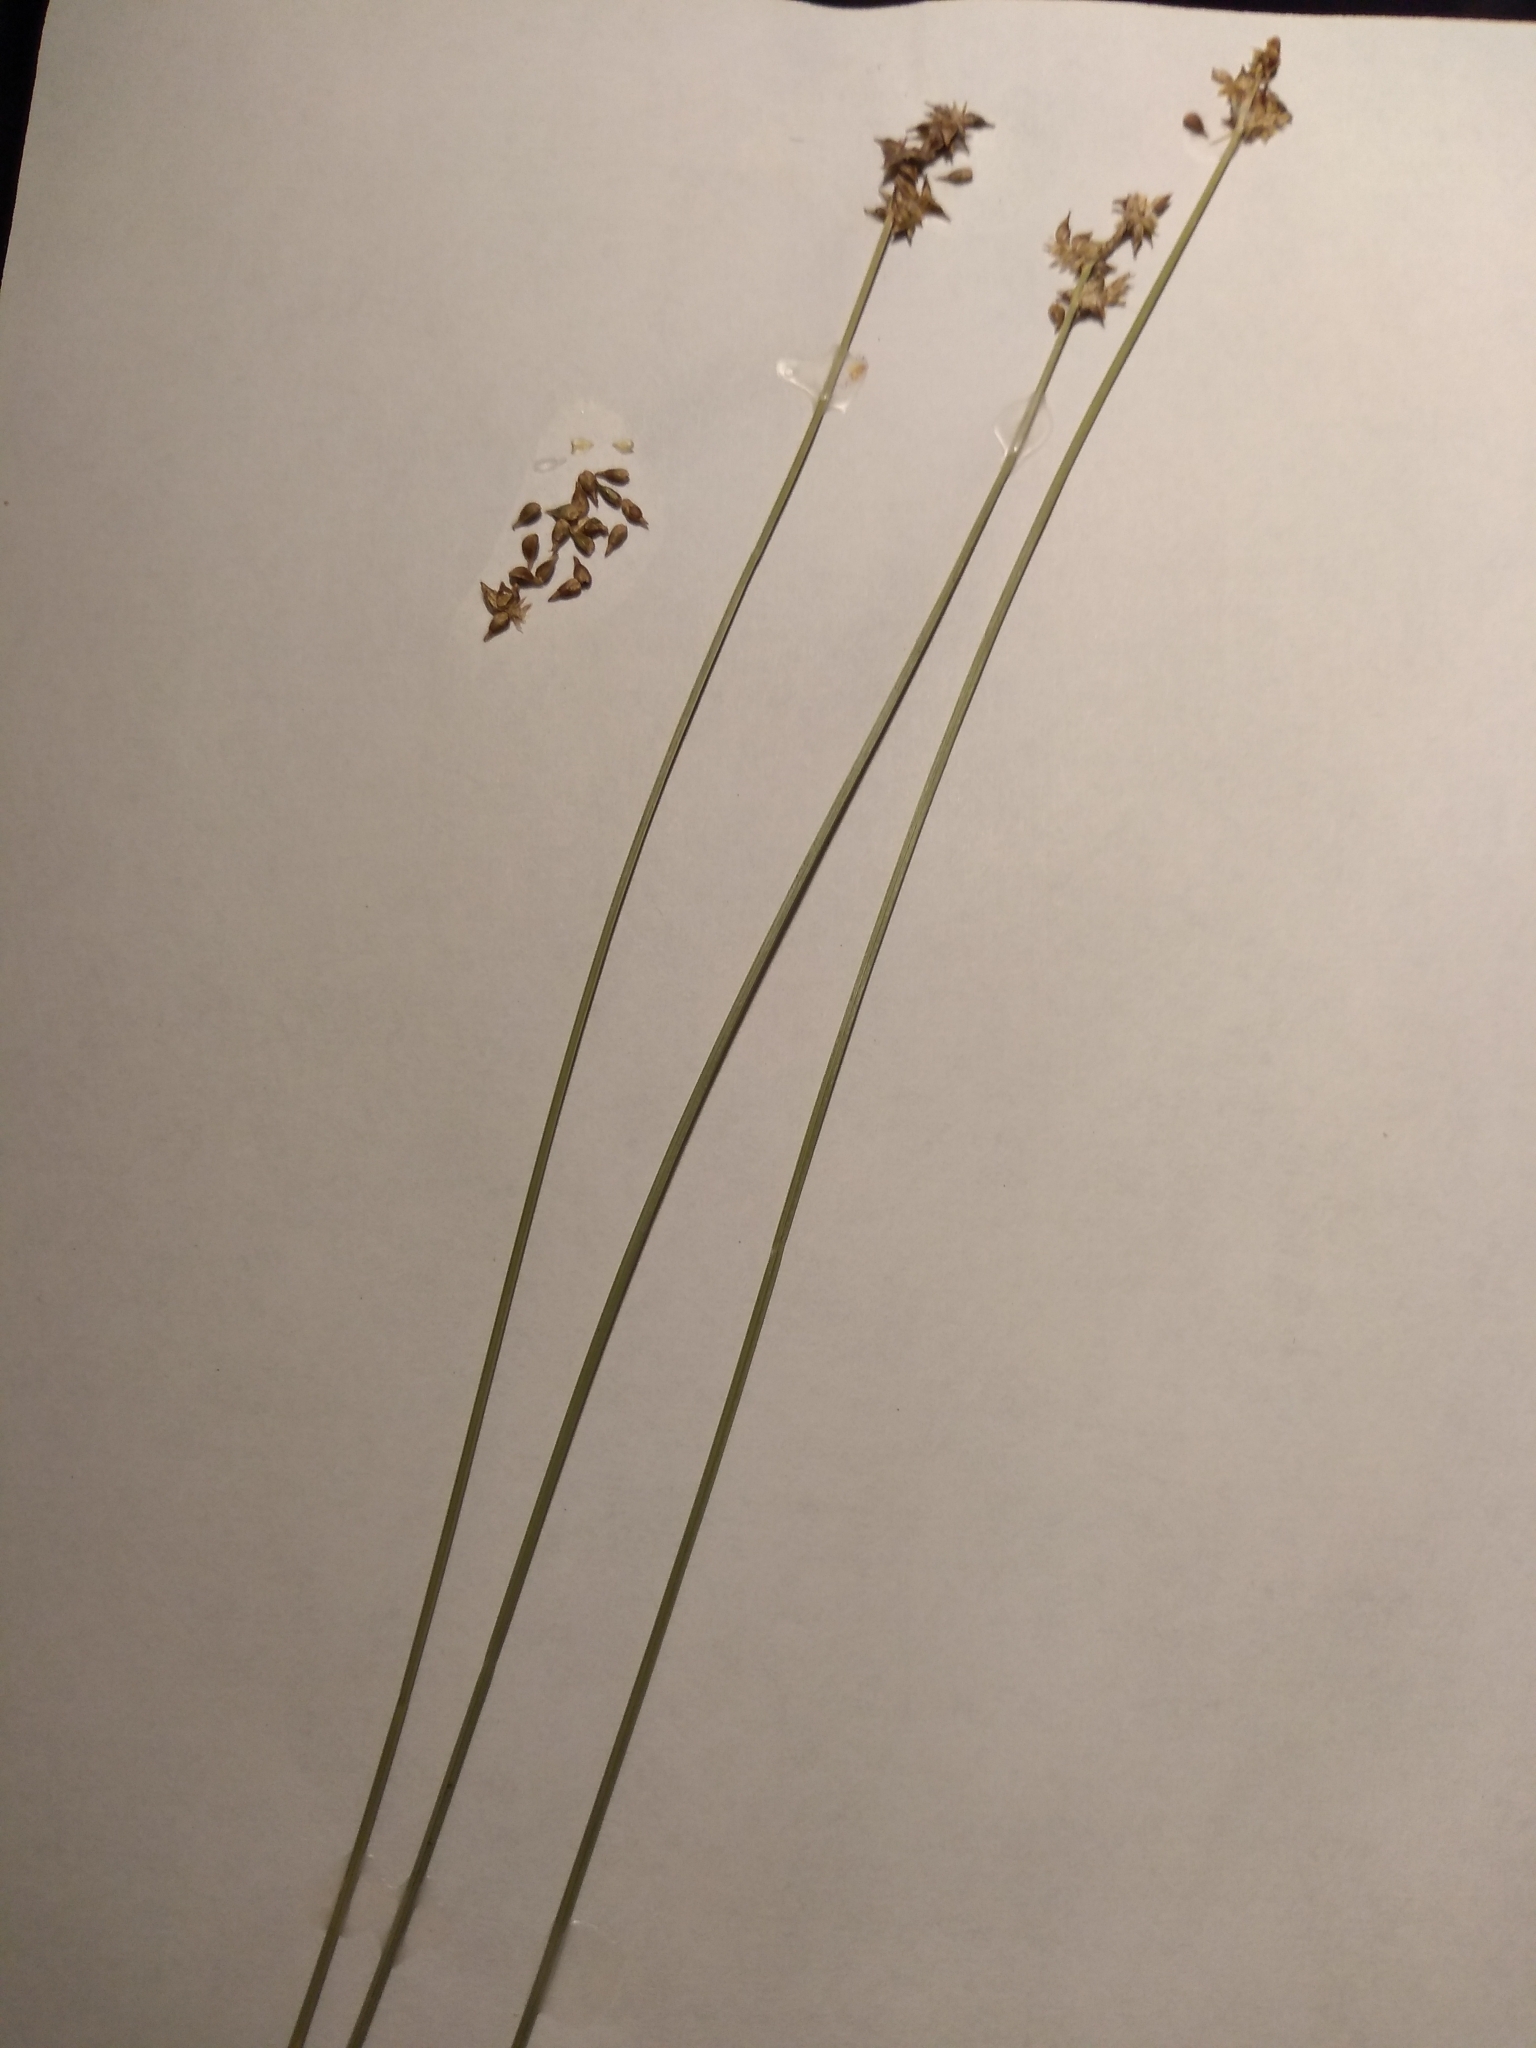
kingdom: Plantae
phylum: Tracheophyta
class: Liliopsida
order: Poales
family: Cyperaceae
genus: Carex
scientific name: Carex interior
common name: Inland sedge
